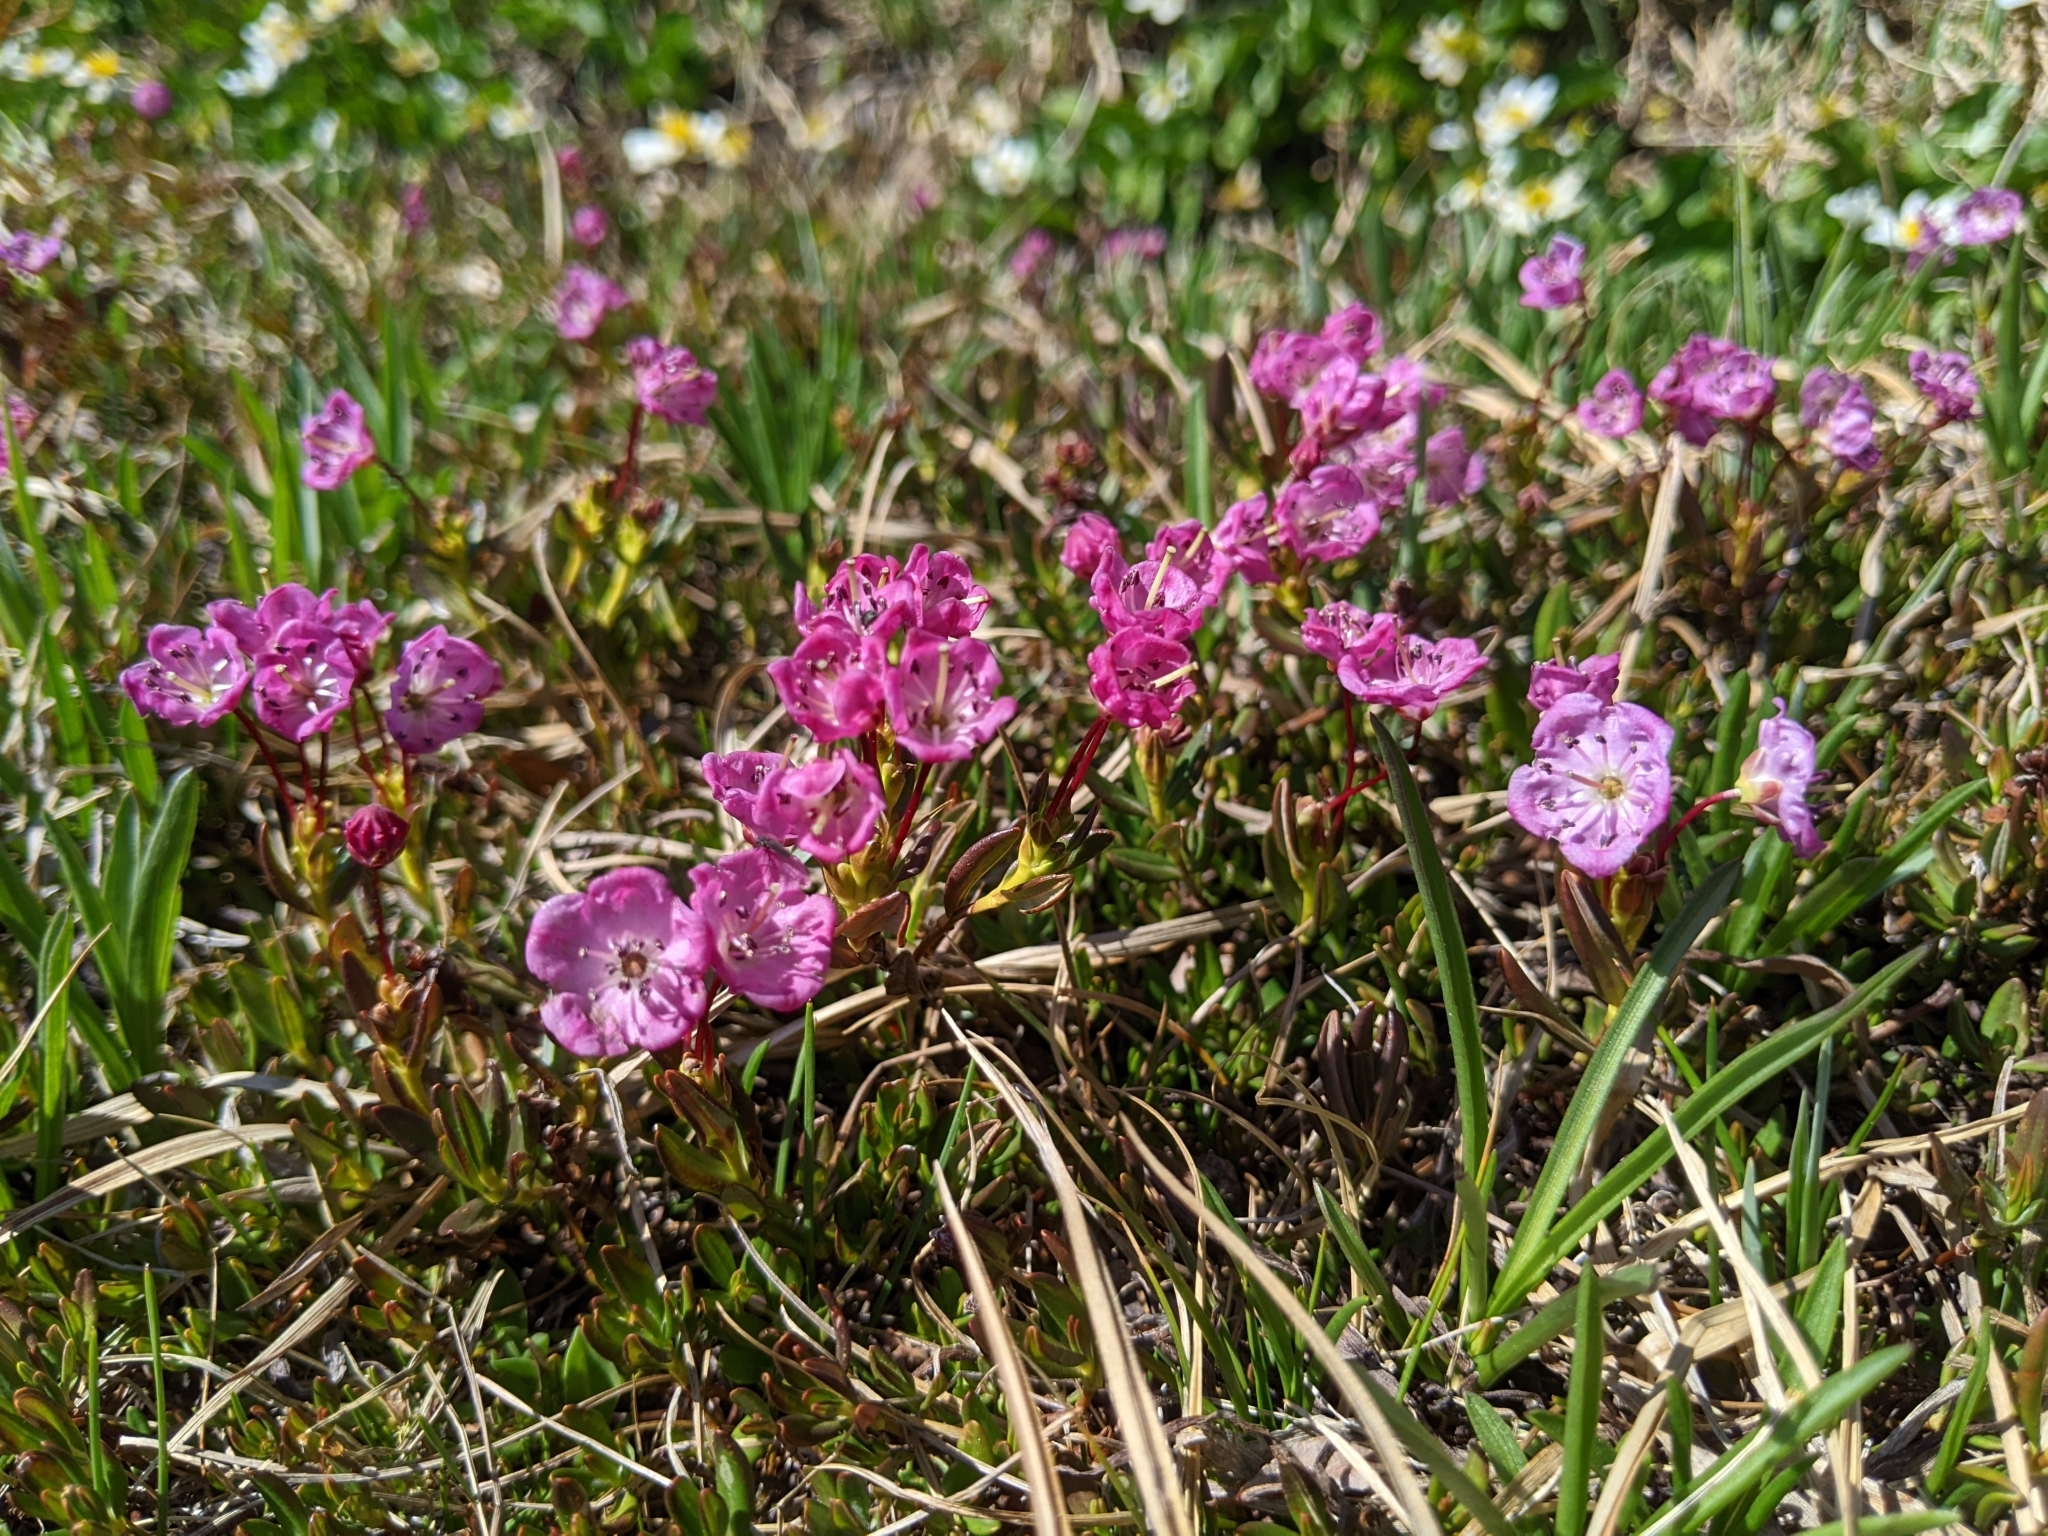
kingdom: Plantae
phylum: Tracheophyta
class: Magnoliopsida
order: Ericales
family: Ericaceae
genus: Kalmia
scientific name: Kalmia microphylla
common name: Alpine bog laurel
